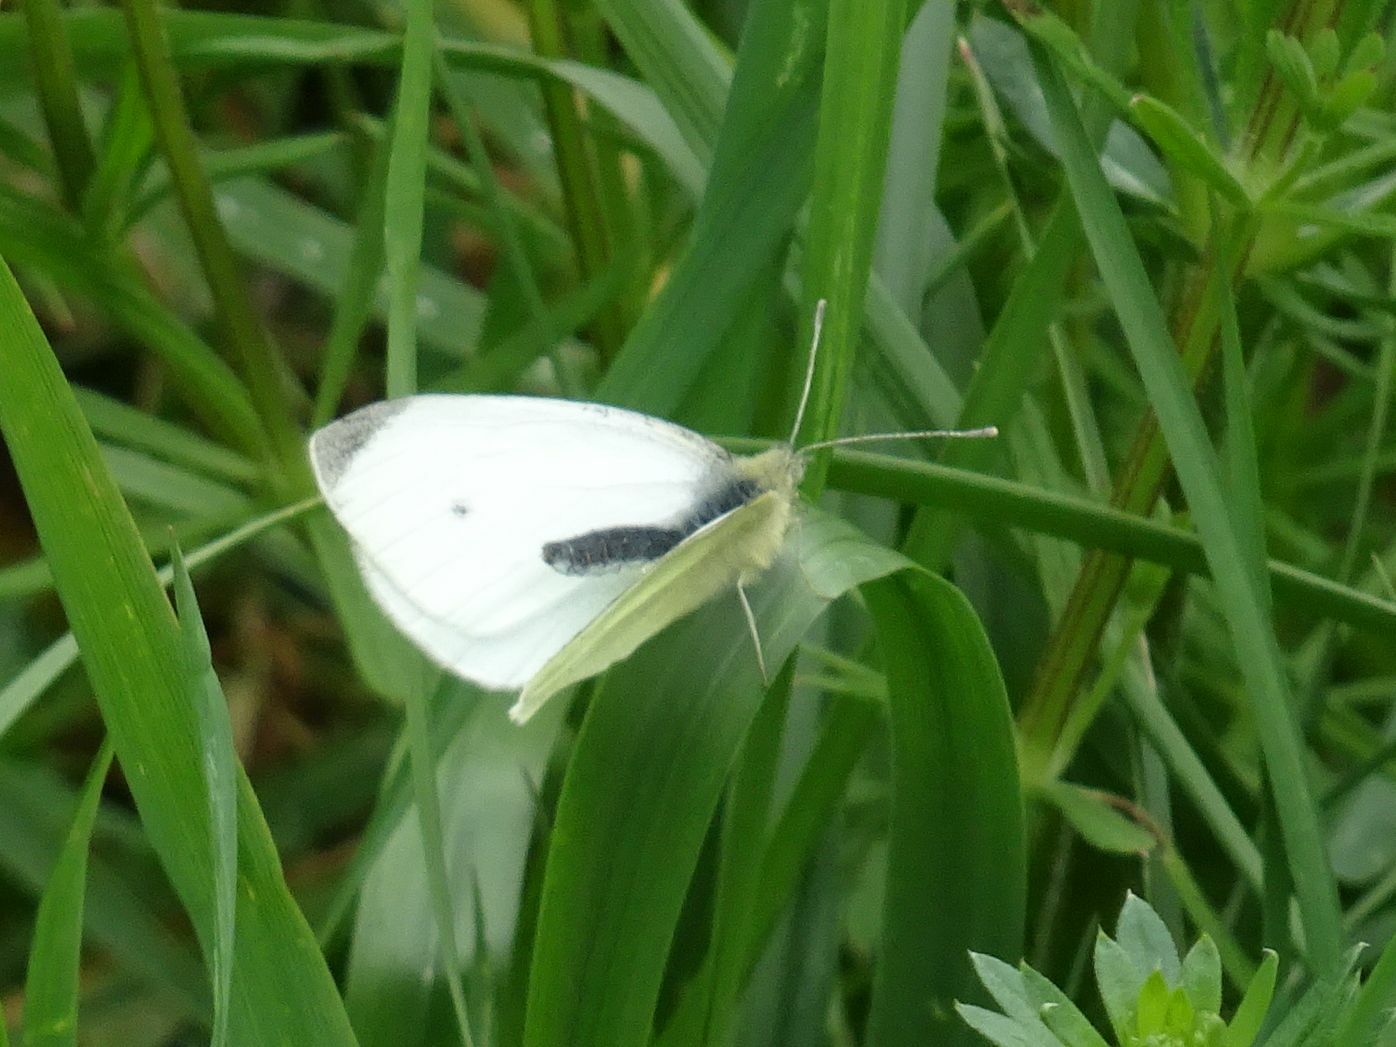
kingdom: Animalia
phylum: Arthropoda
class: Insecta
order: Lepidoptera
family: Pieridae
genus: Pieris
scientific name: Pieris rapae
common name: Small white
